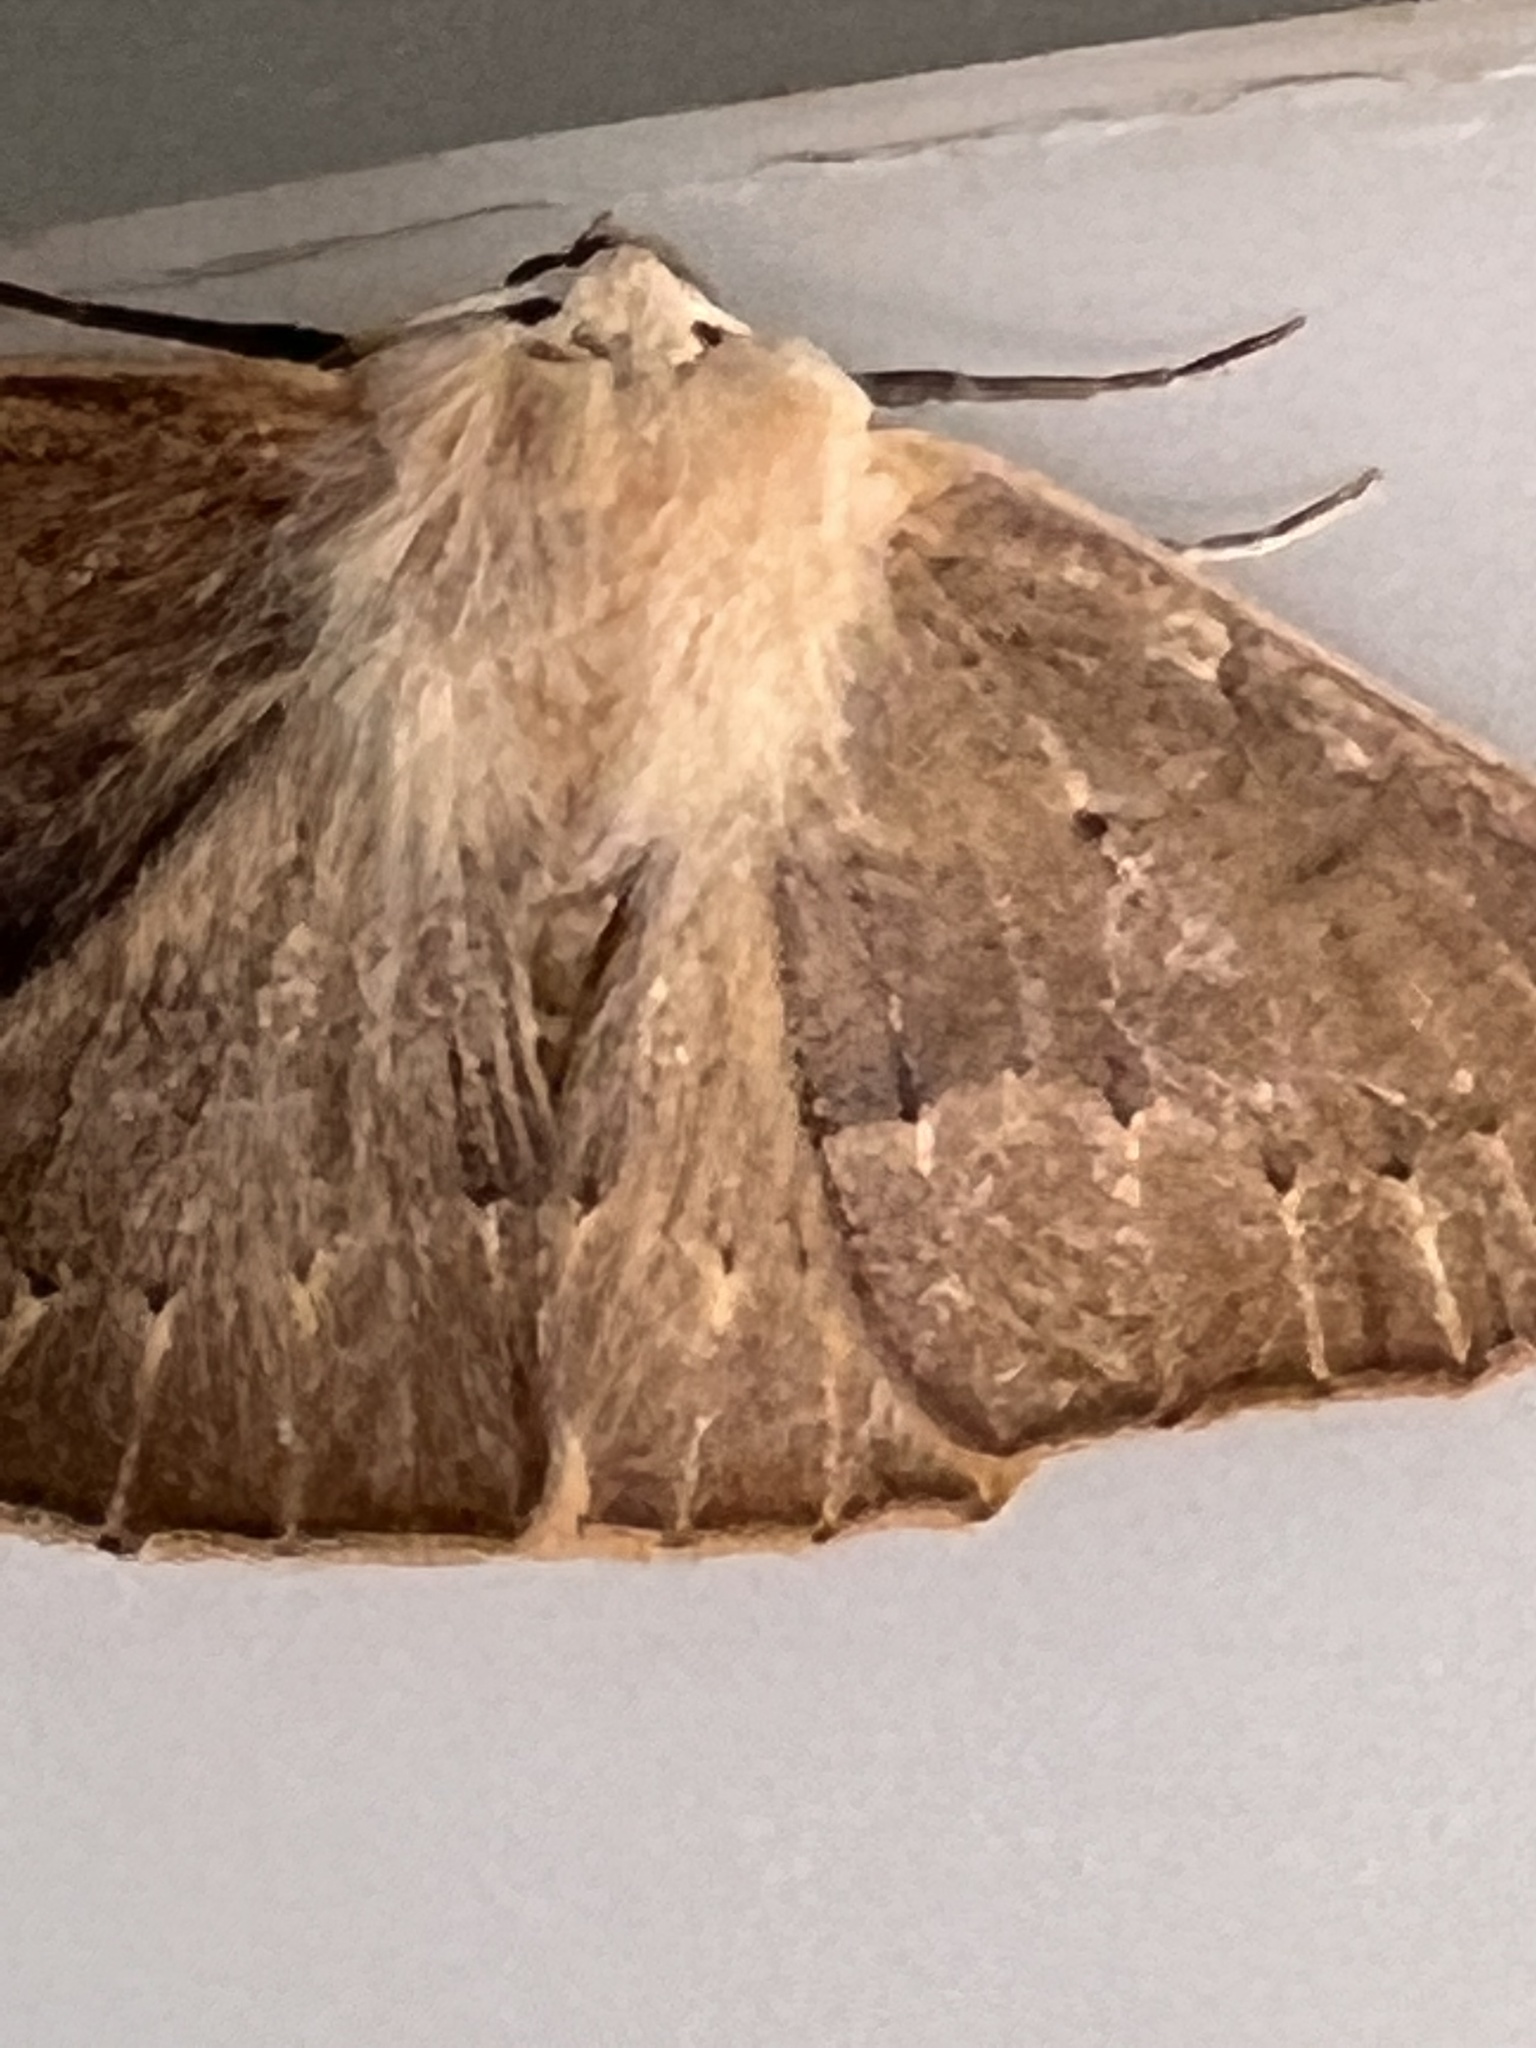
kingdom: Animalia
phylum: Arthropoda
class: Insecta
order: Lepidoptera
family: Geometridae
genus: Sabulodes
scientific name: Sabulodes aegrotata
